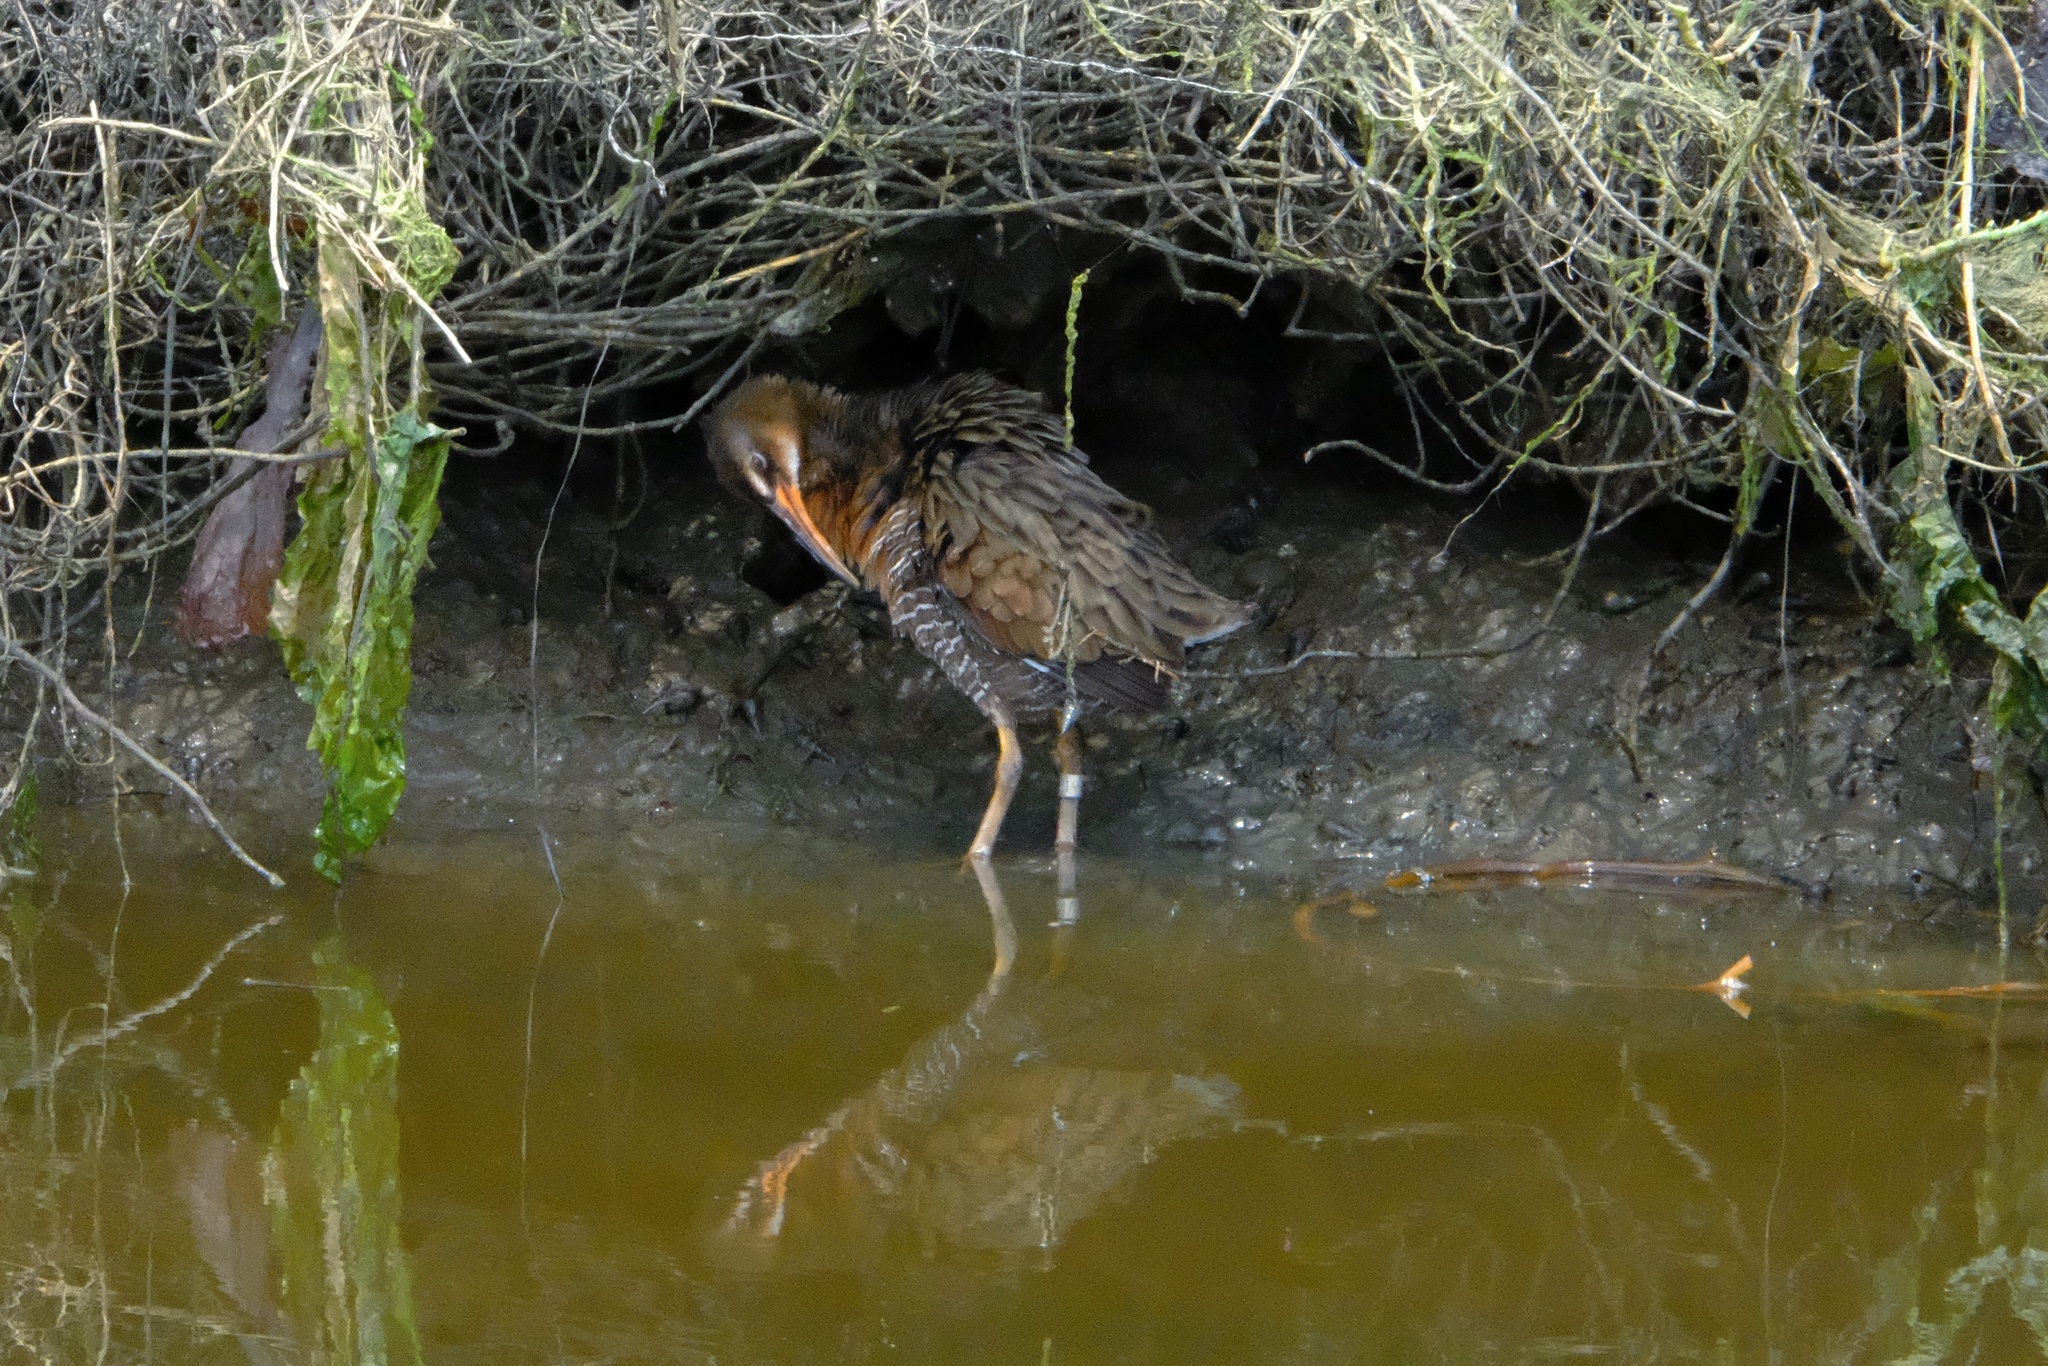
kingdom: Animalia
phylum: Chordata
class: Aves
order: Gruiformes
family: Rallidae
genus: Rallus
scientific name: Rallus obsoletus
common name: Ridgway's rail
